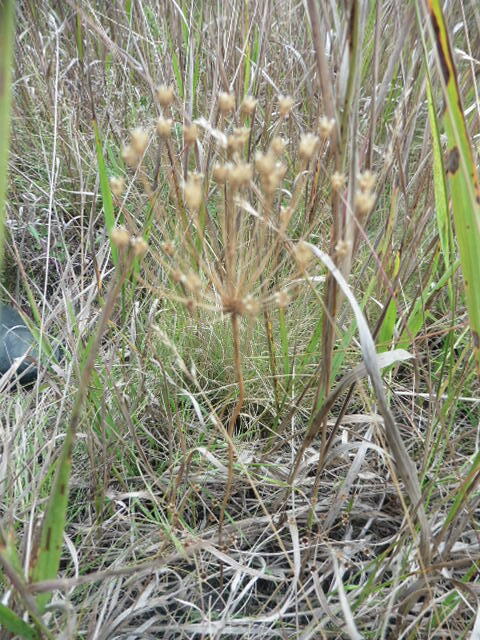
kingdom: Plantae
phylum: Tracheophyta
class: Magnoliopsida
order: Ericales
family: Primulaceae
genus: Androsace
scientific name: Androsace septentrionalis
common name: Hairy northern fairy-candelabra
